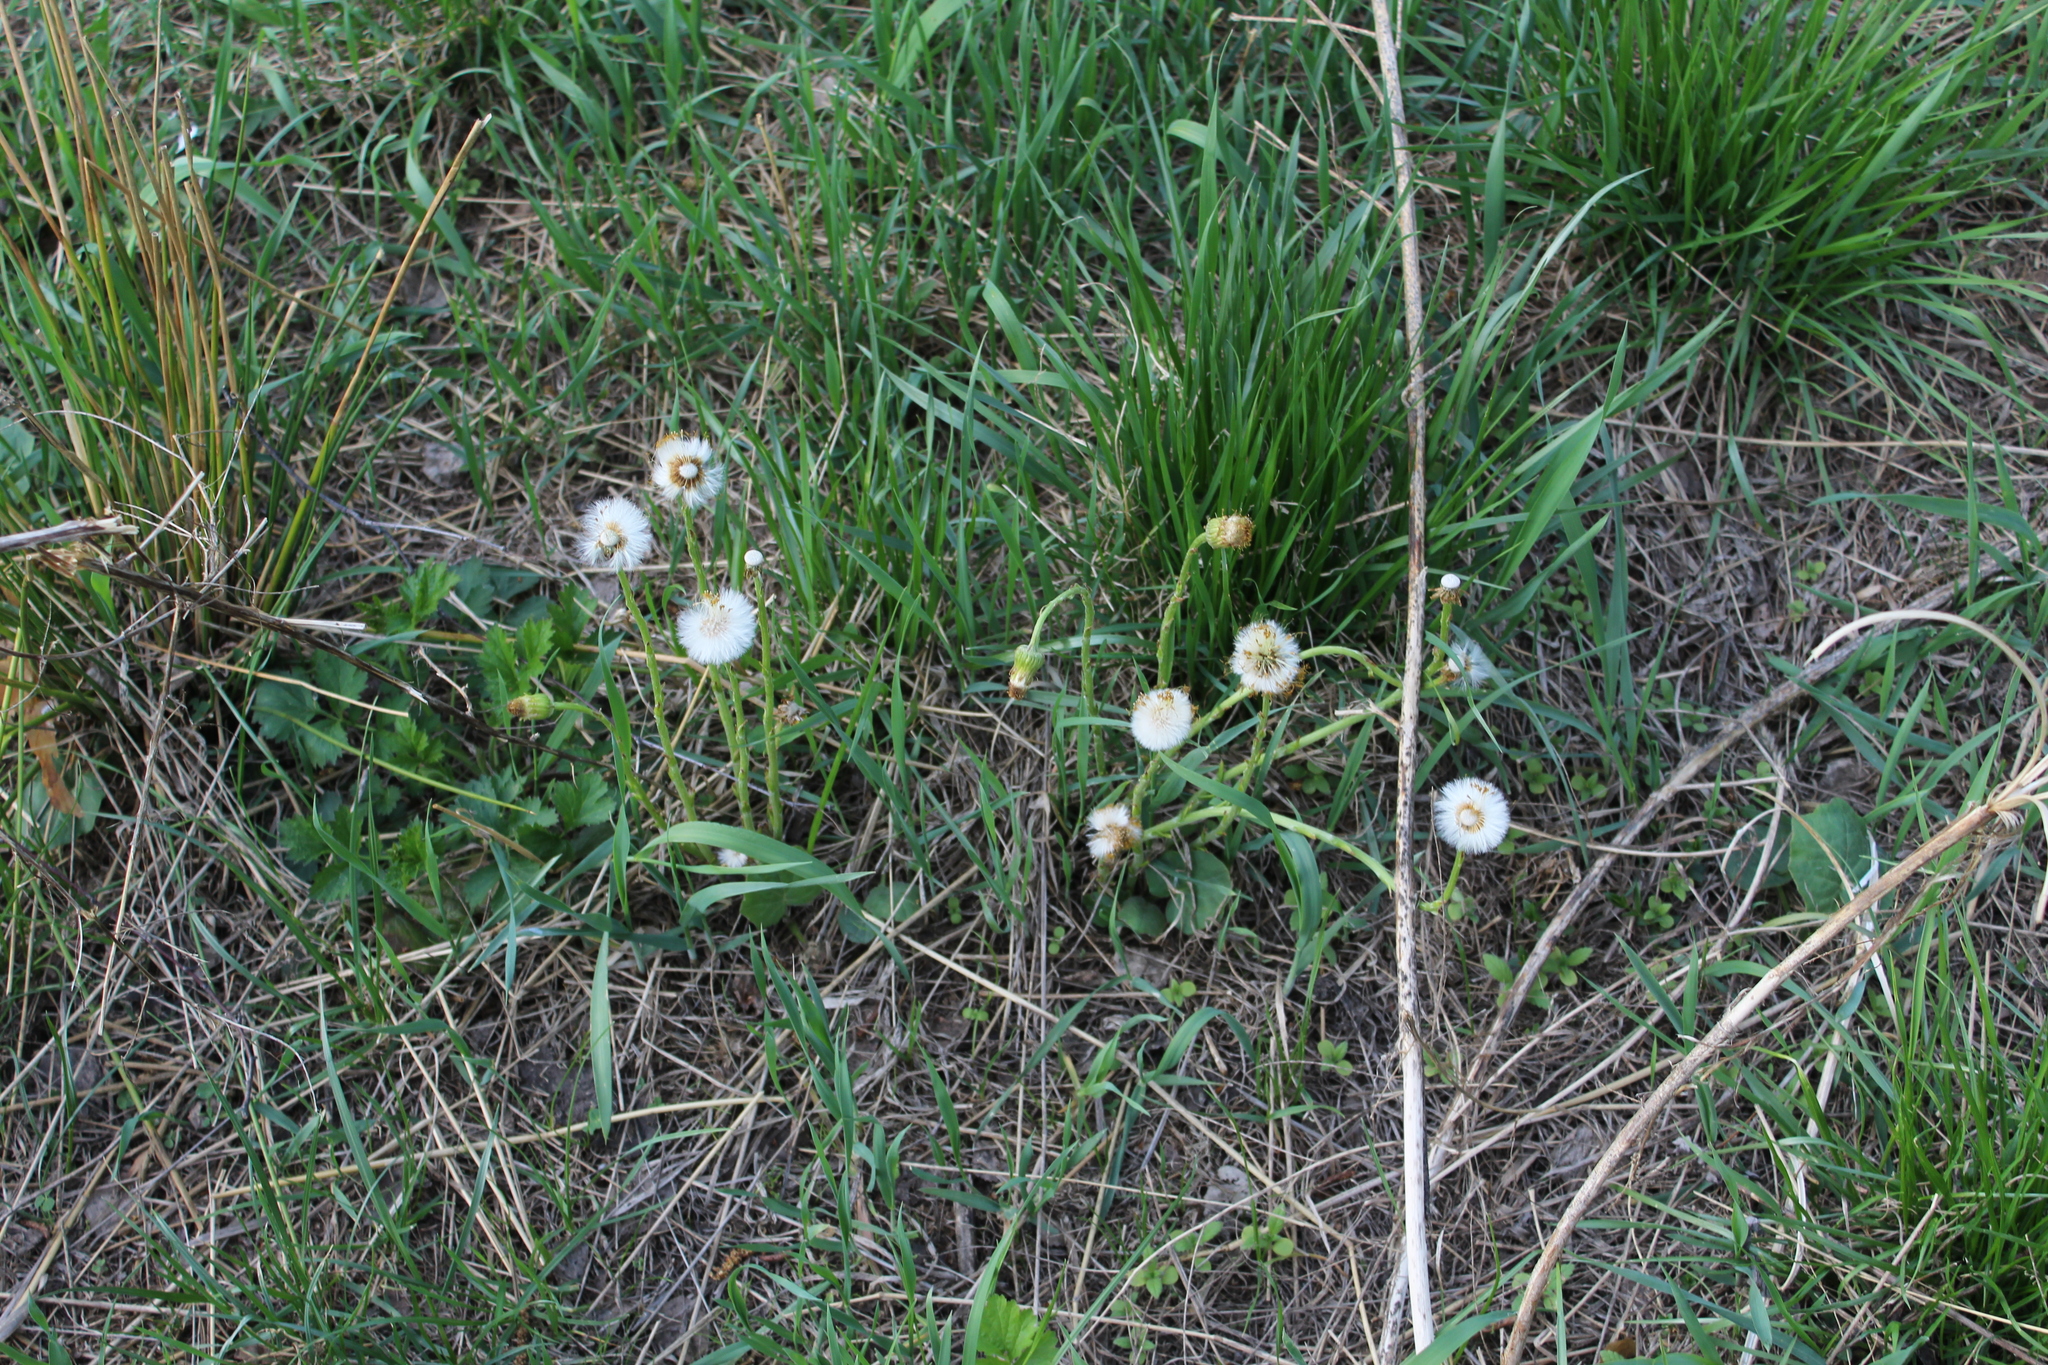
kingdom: Plantae
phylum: Tracheophyta
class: Magnoliopsida
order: Asterales
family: Asteraceae
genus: Tussilago
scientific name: Tussilago farfara
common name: Coltsfoot
